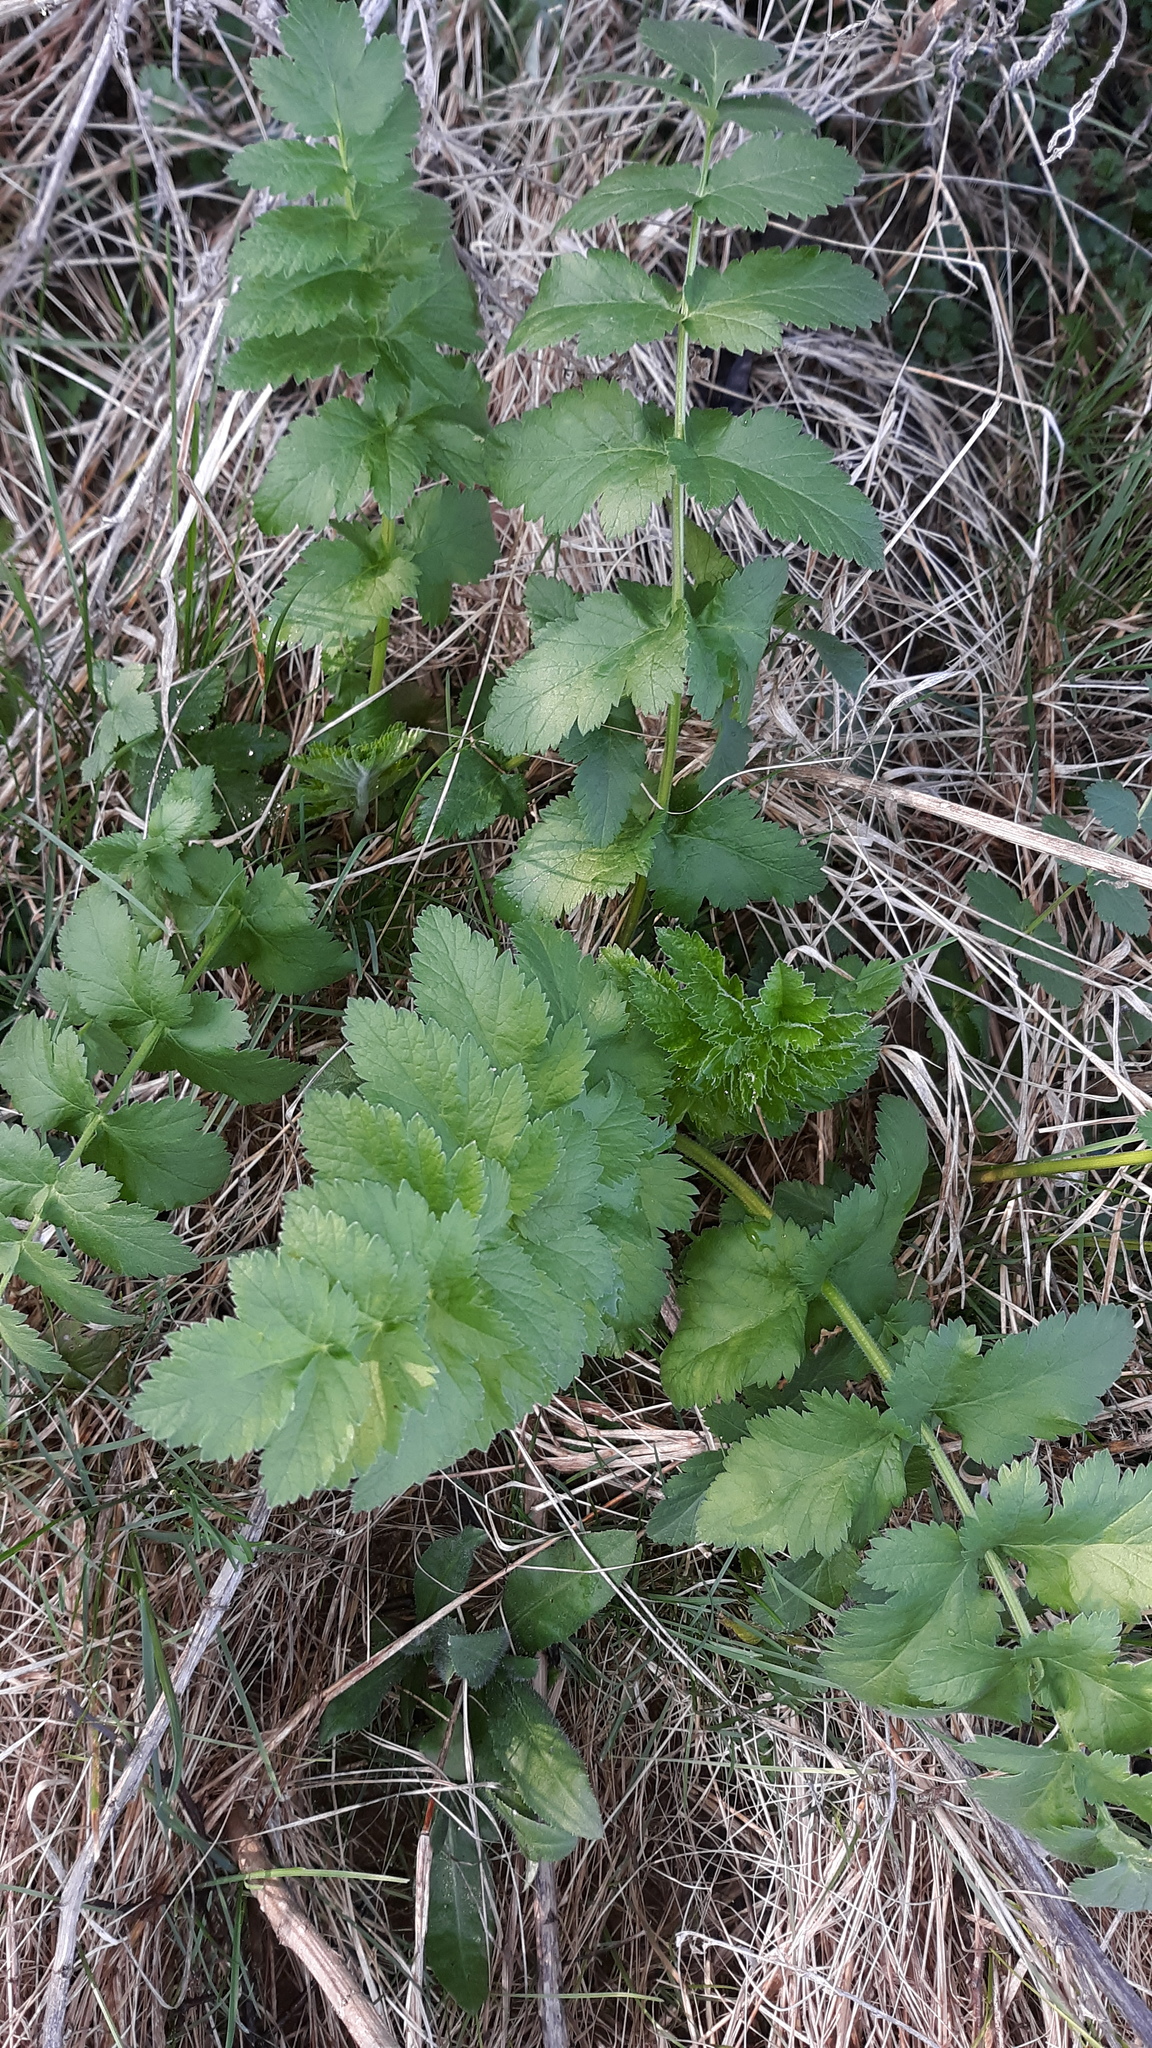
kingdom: Plantae
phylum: Tracheophyta
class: Magnoliopsida
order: Apiales
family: Apiaceae
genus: Pastinaca
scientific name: Pastinaca sativa
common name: Wild parsnip
